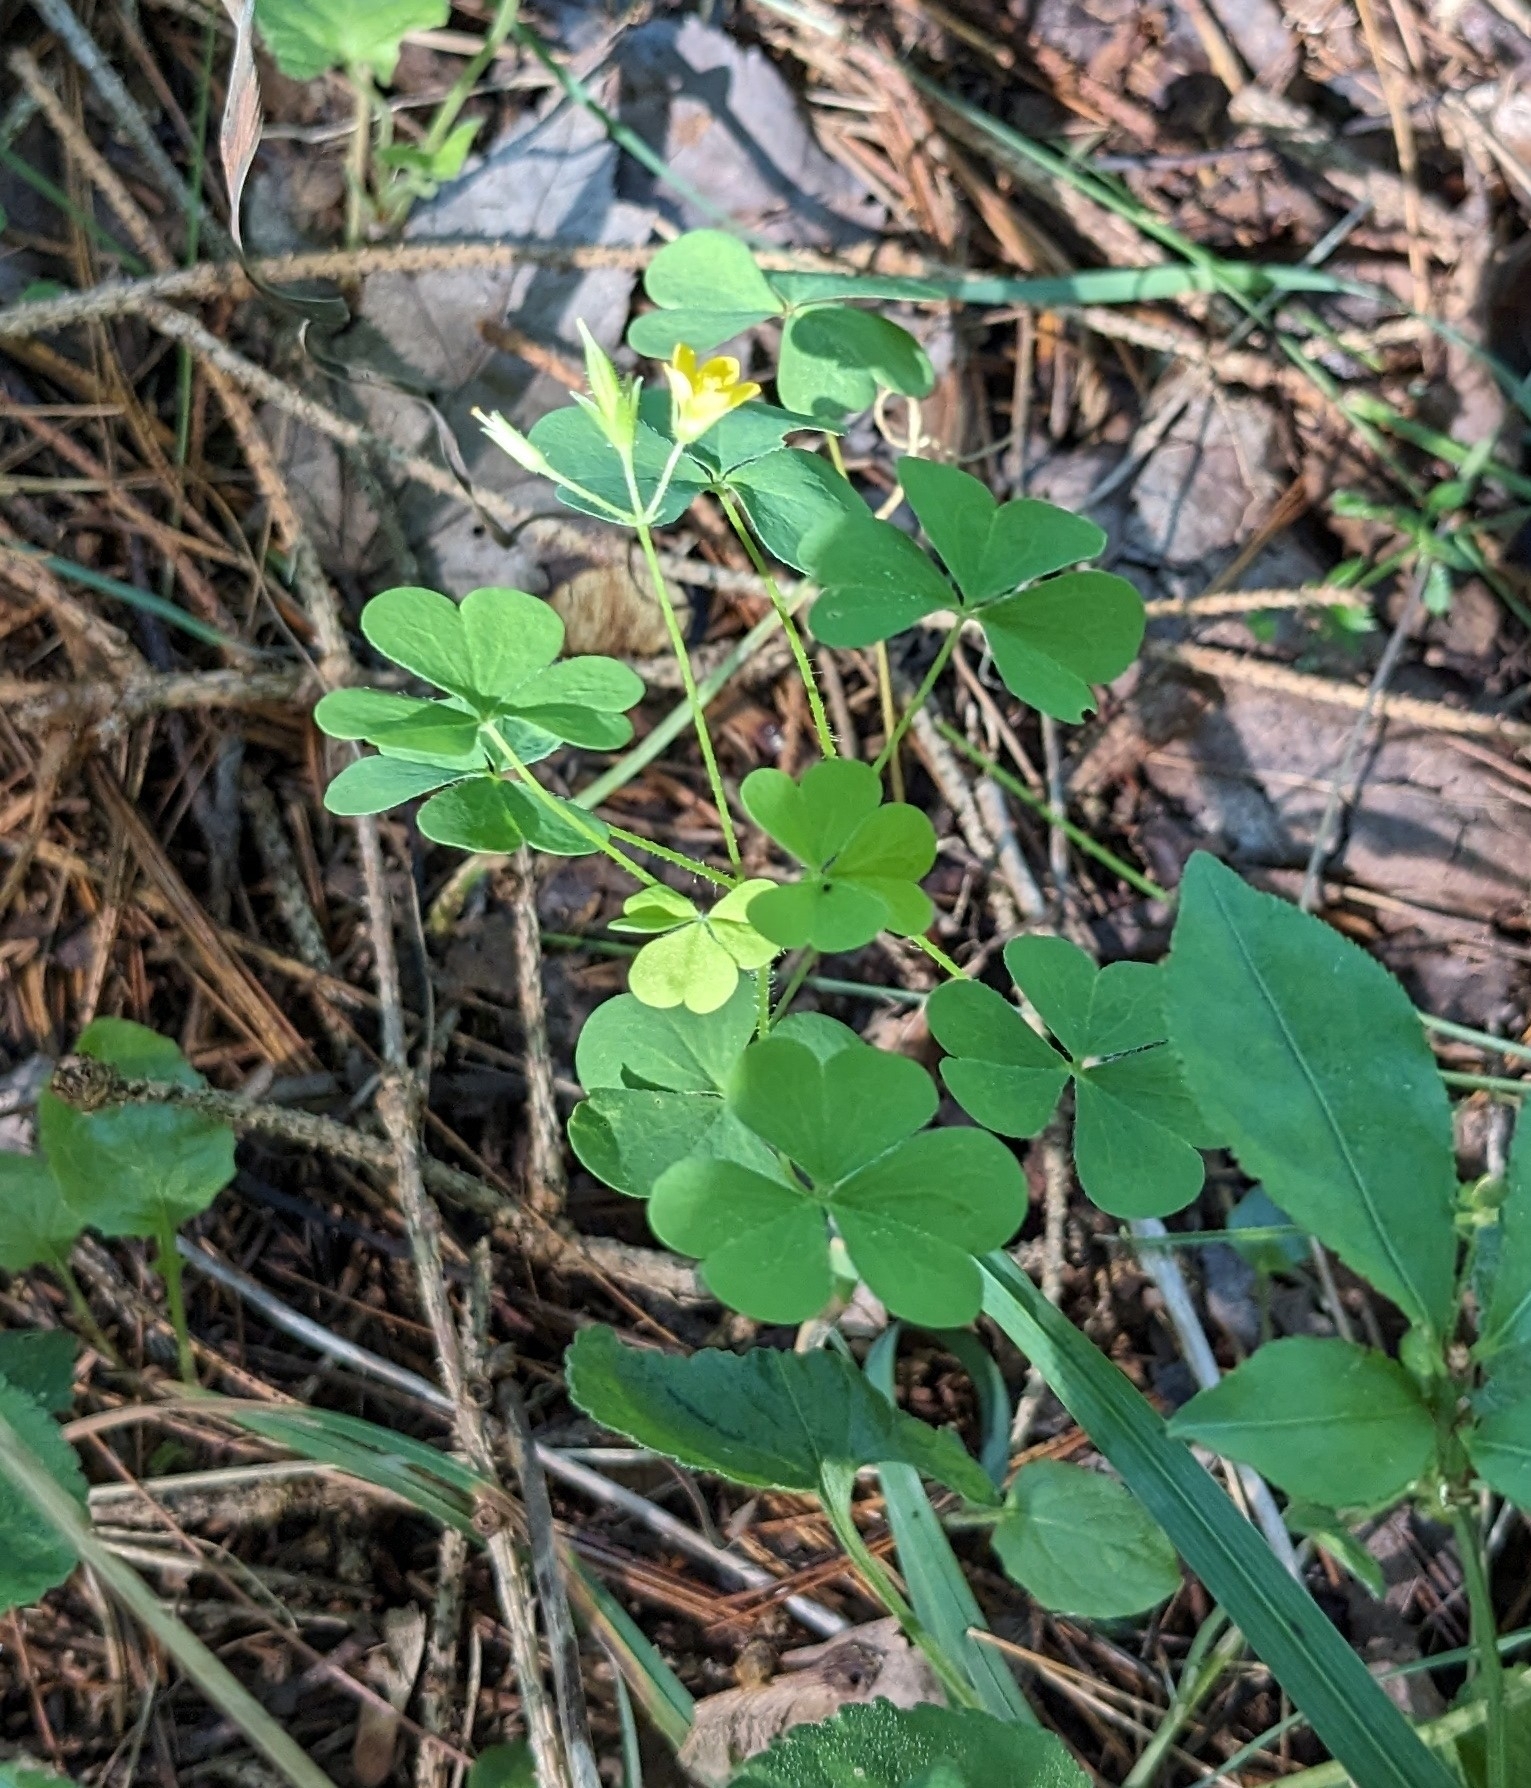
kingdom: Plantae
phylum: Tracheophyta
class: Magnoliopsida
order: Oxalidales
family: Oxalidaceae
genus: Oxalis
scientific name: Oxalis stricta
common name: Upright yellow-sorrel
